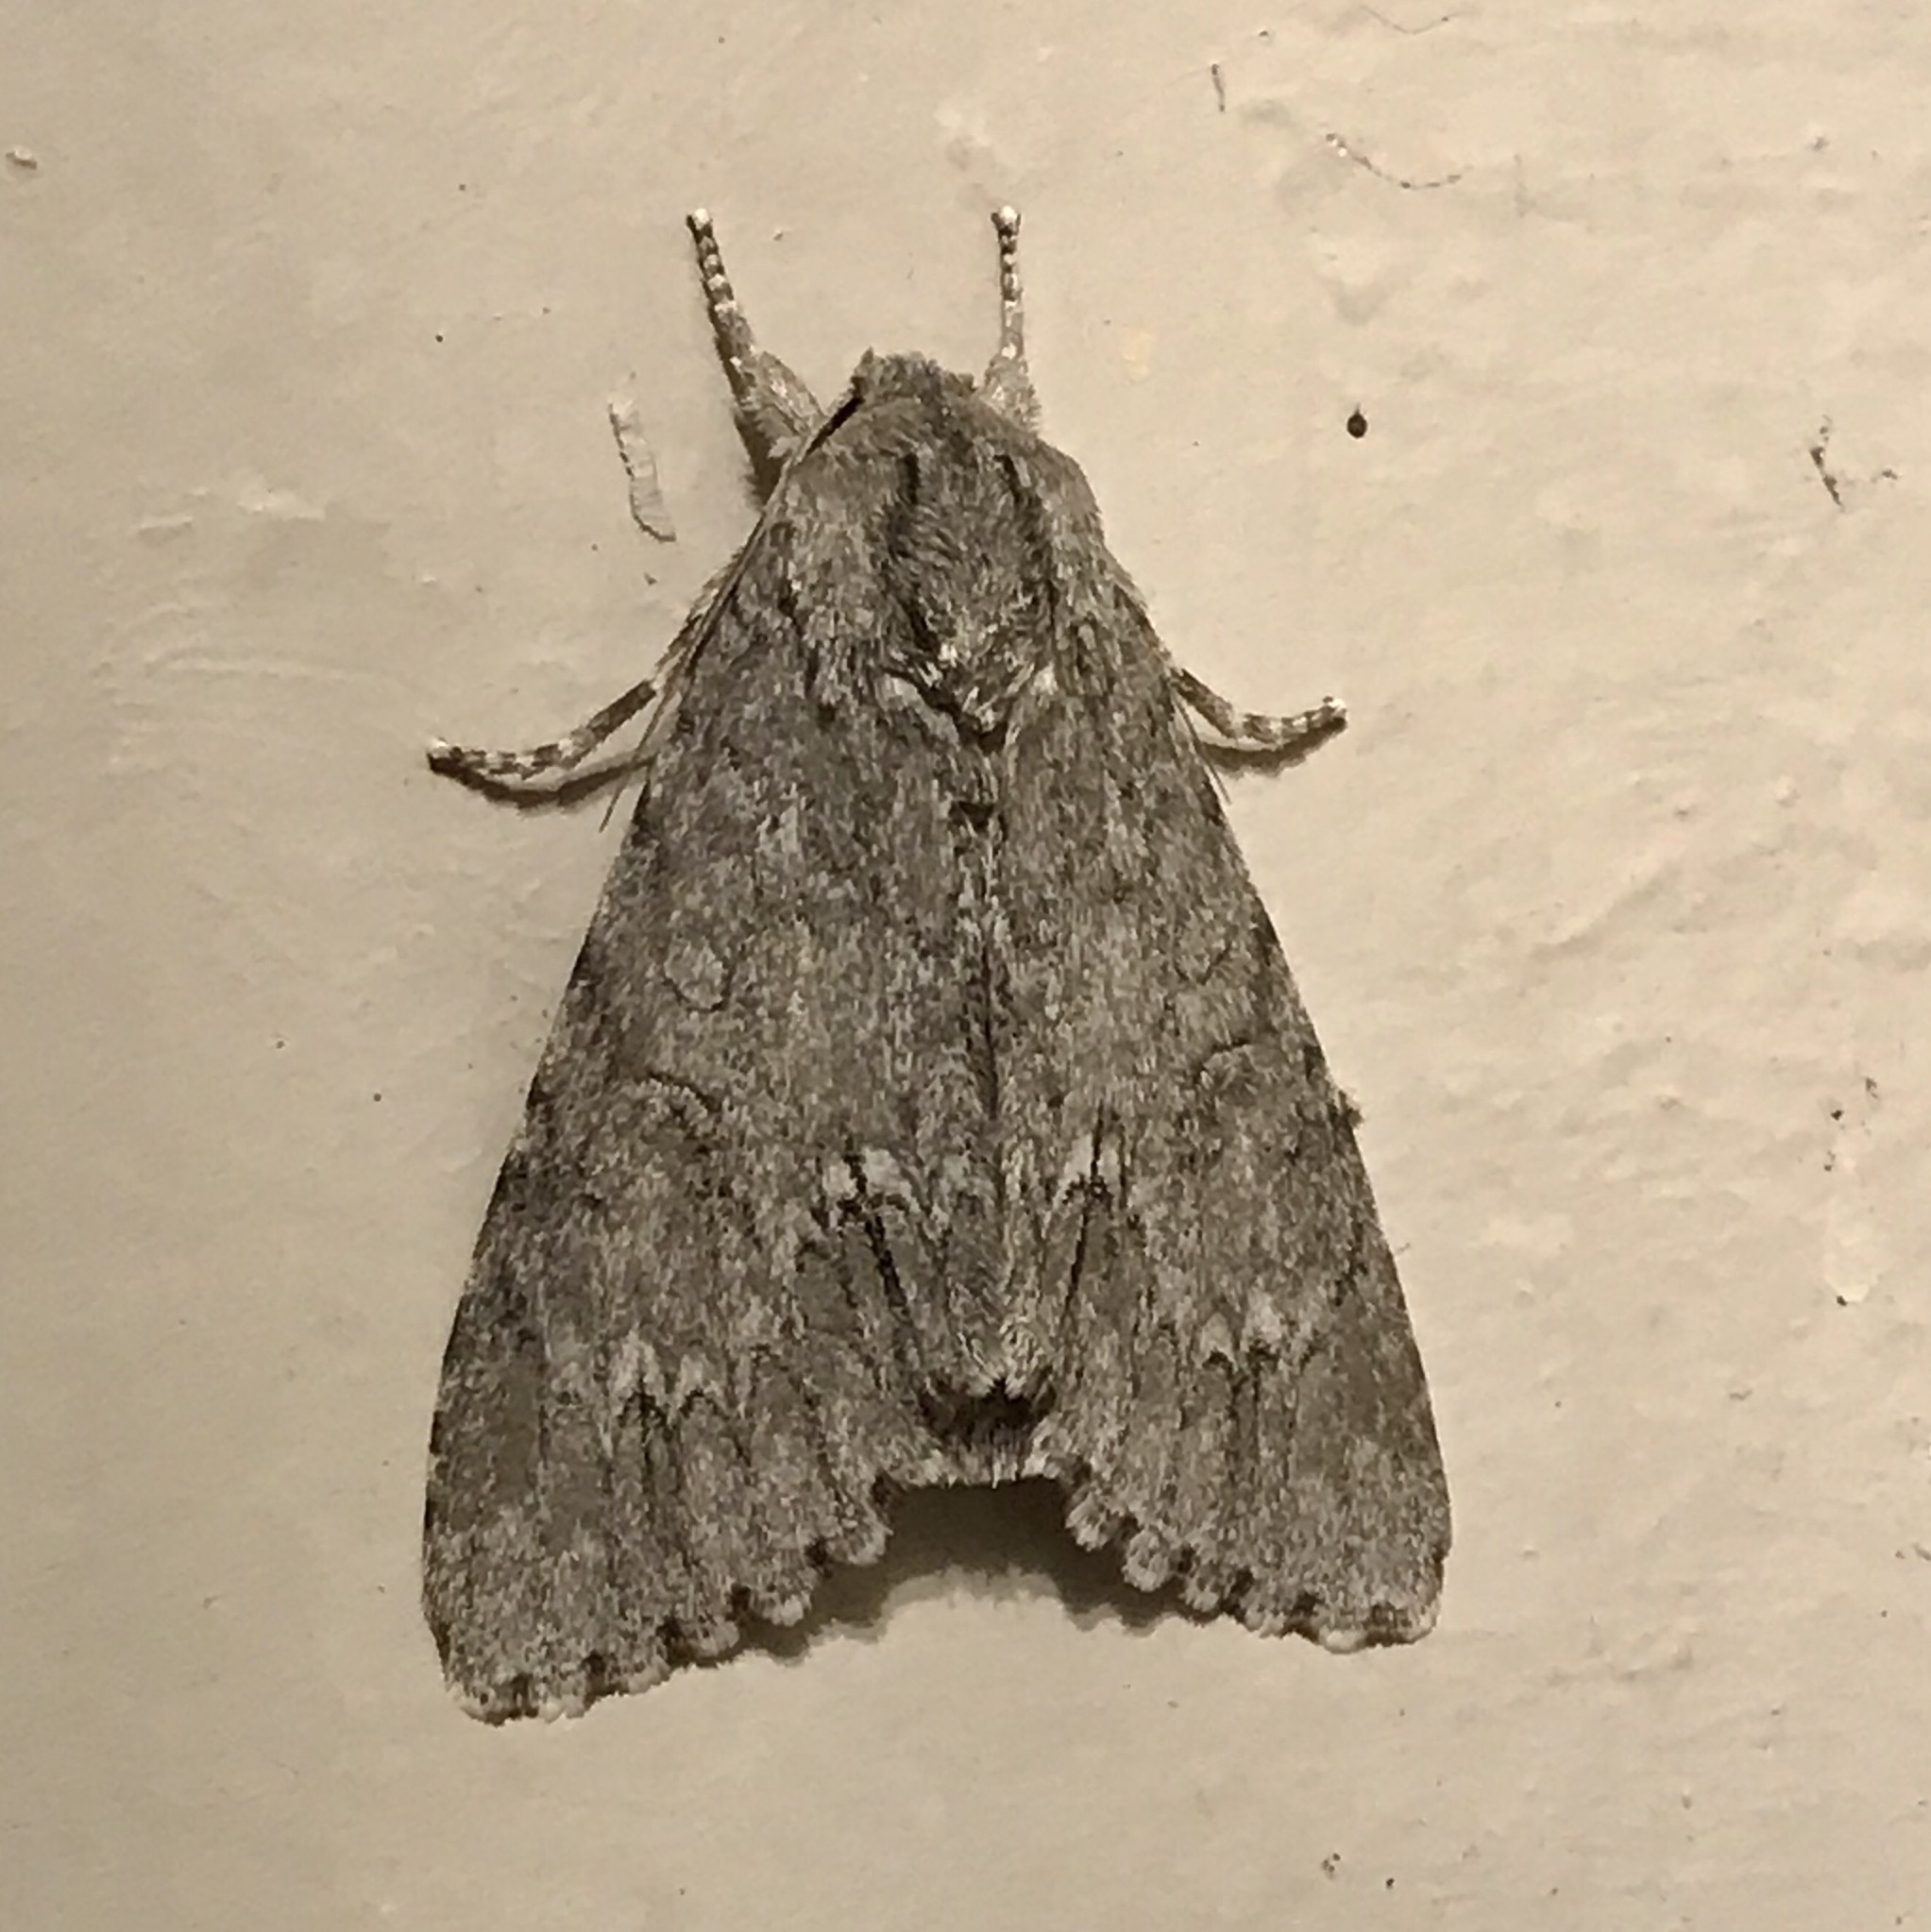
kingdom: Animalia
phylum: Arthropoda
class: Insecta
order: Lepidoptera
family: Noctuidae
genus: Acronicta
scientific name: Acronicta americana
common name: American dagger
